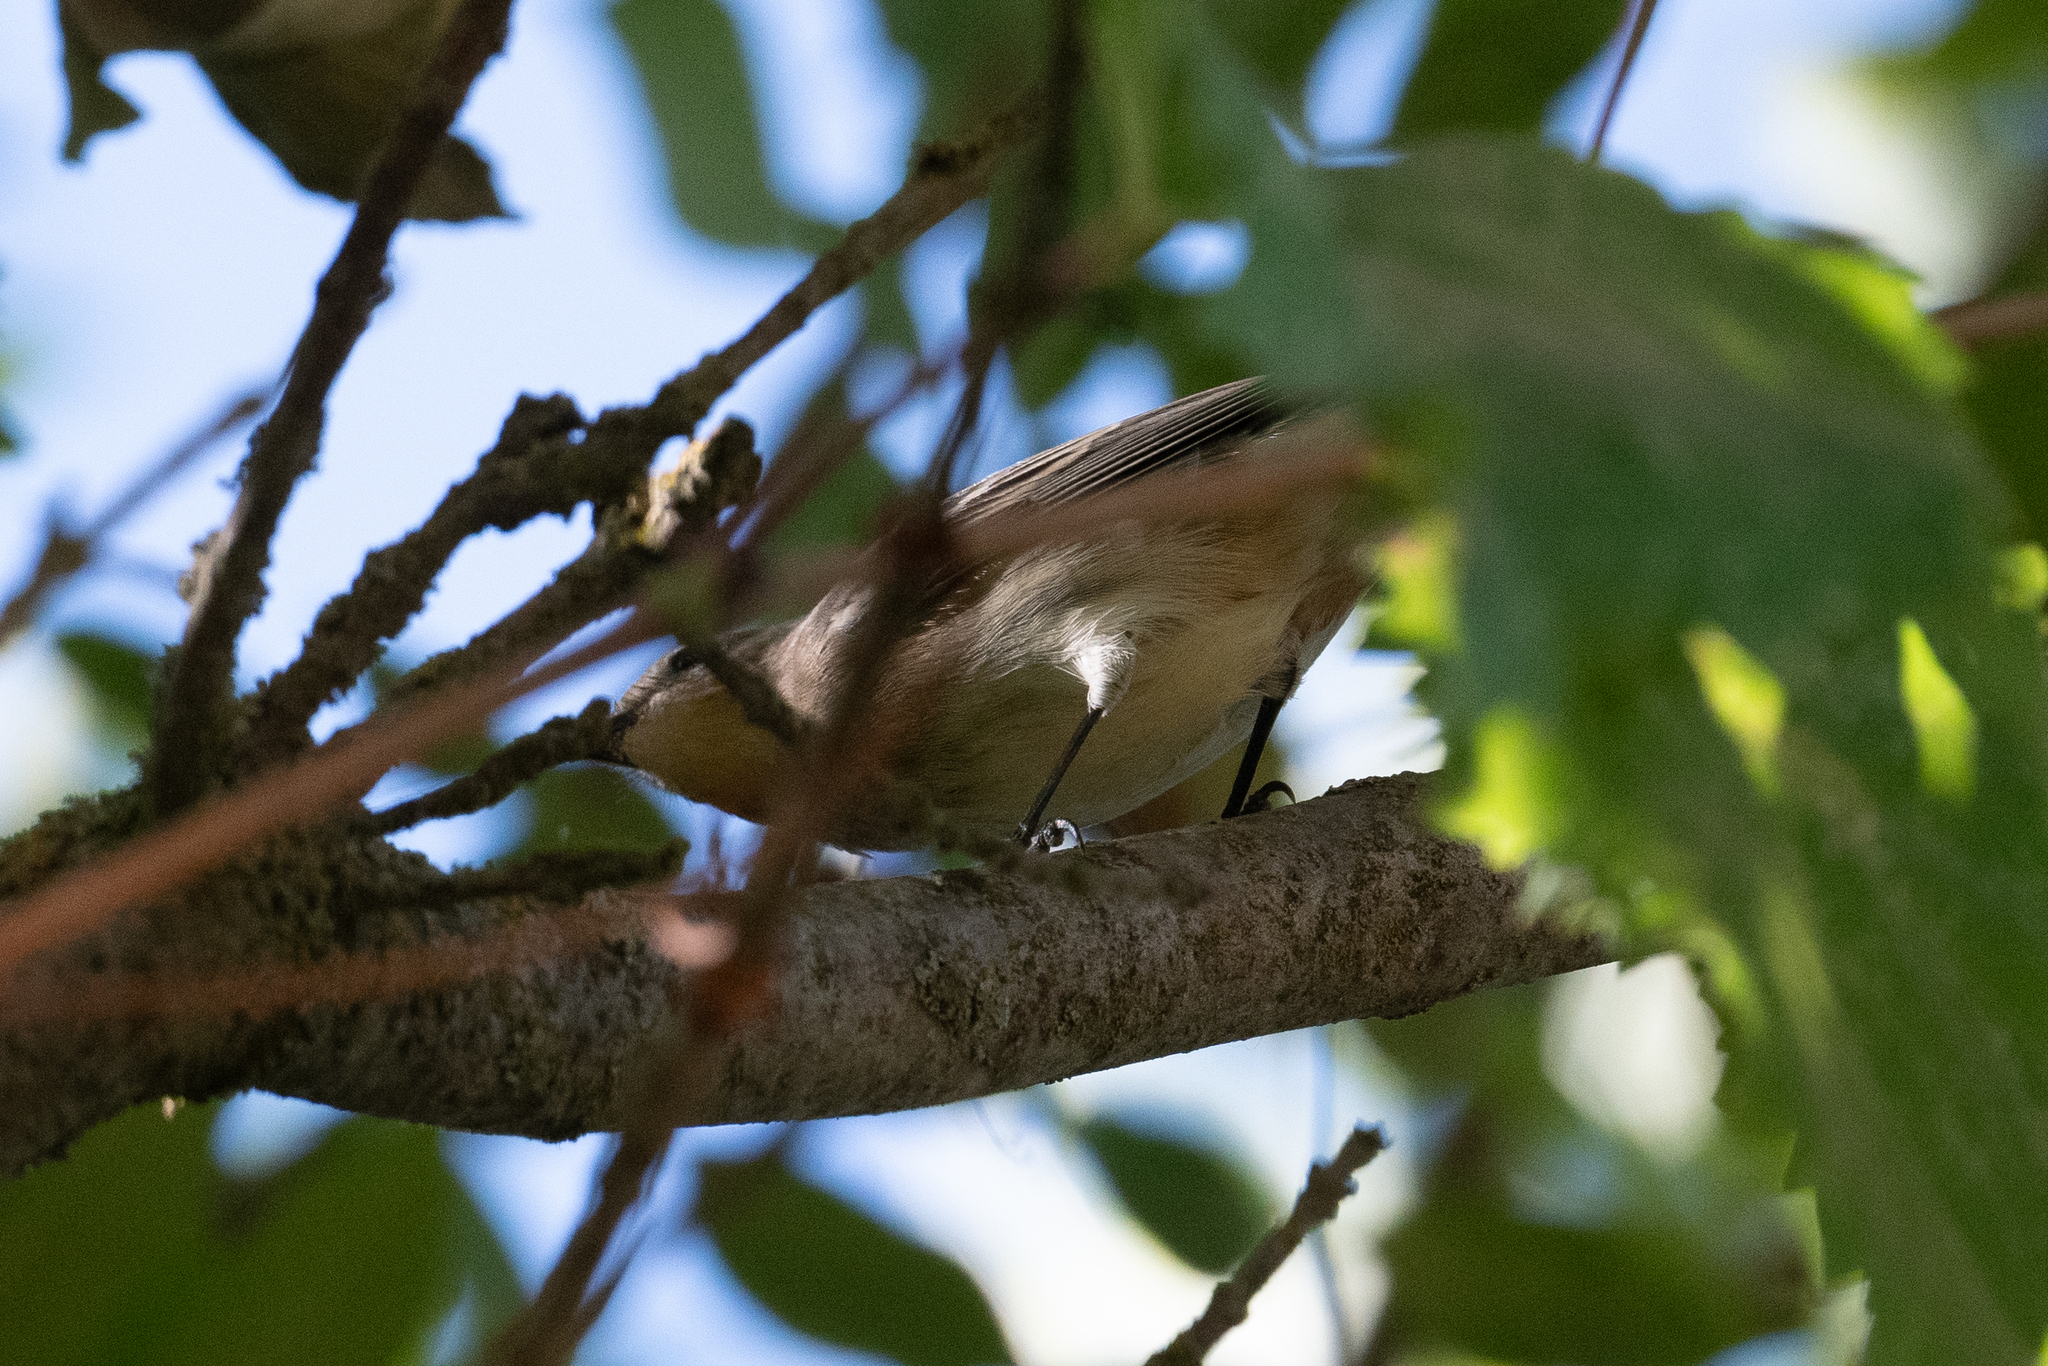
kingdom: Animalia
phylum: Chordata
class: Aves
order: Passeriformes
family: Parulidae
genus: Setophaga
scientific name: Setophaga coronata
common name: Myrtle warbler
